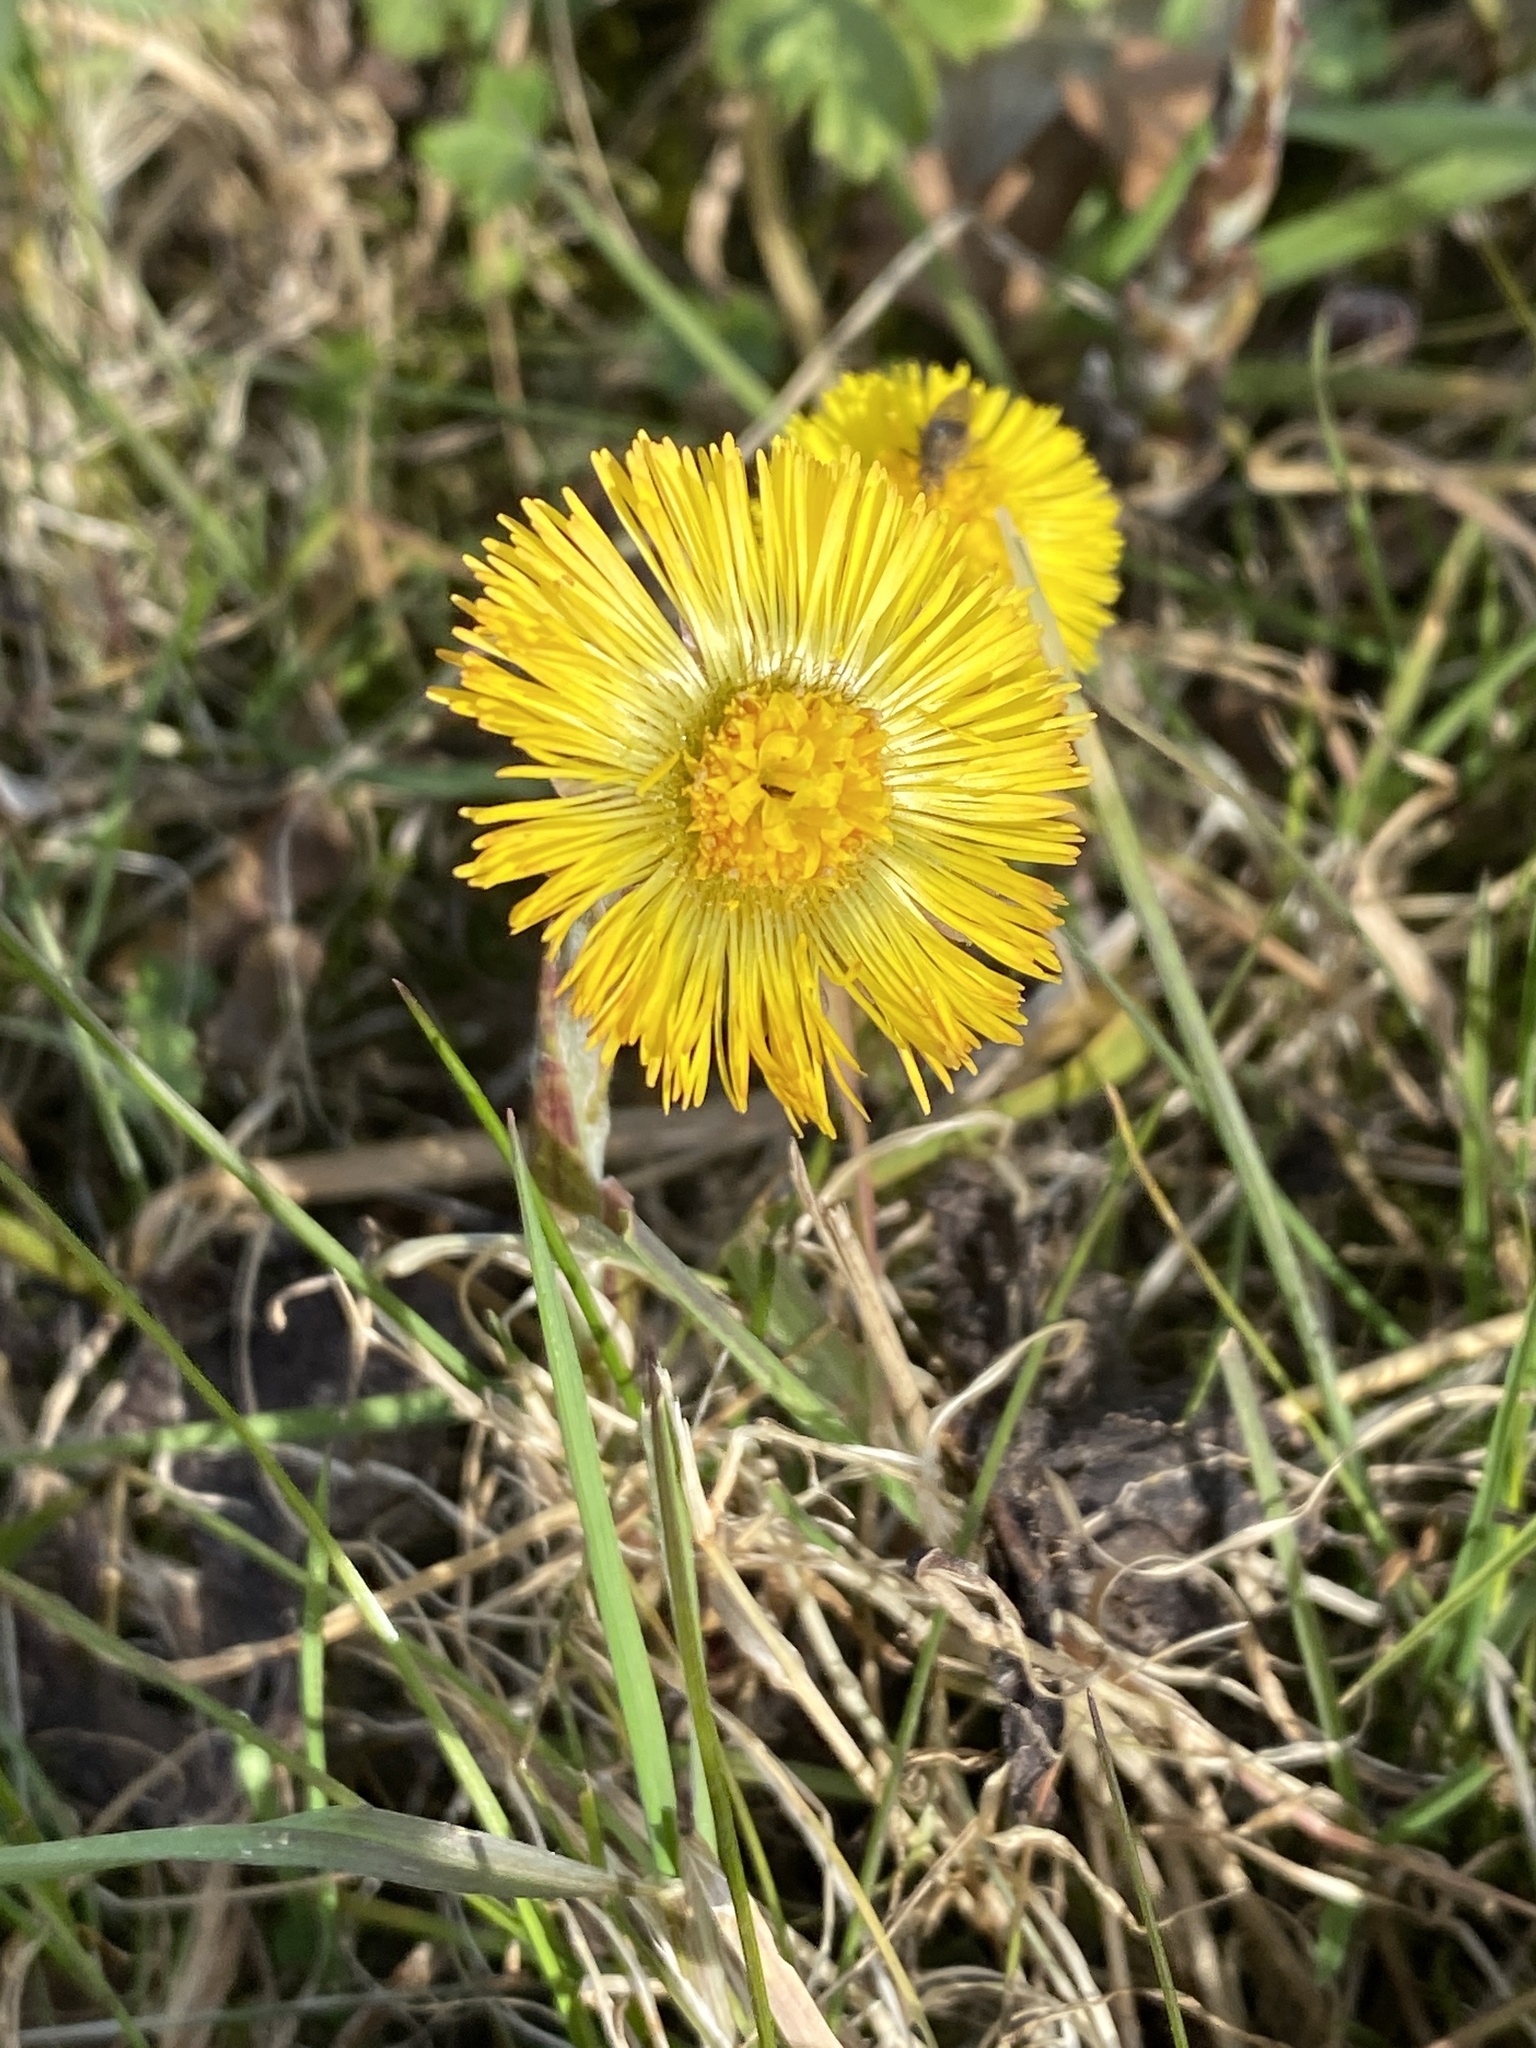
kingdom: Plantae
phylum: Tracheophyta
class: Magnoliopsida
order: Asterales
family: Asteraceae
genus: Tussilago
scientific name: Tussilago farfara
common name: Coltsfoot
